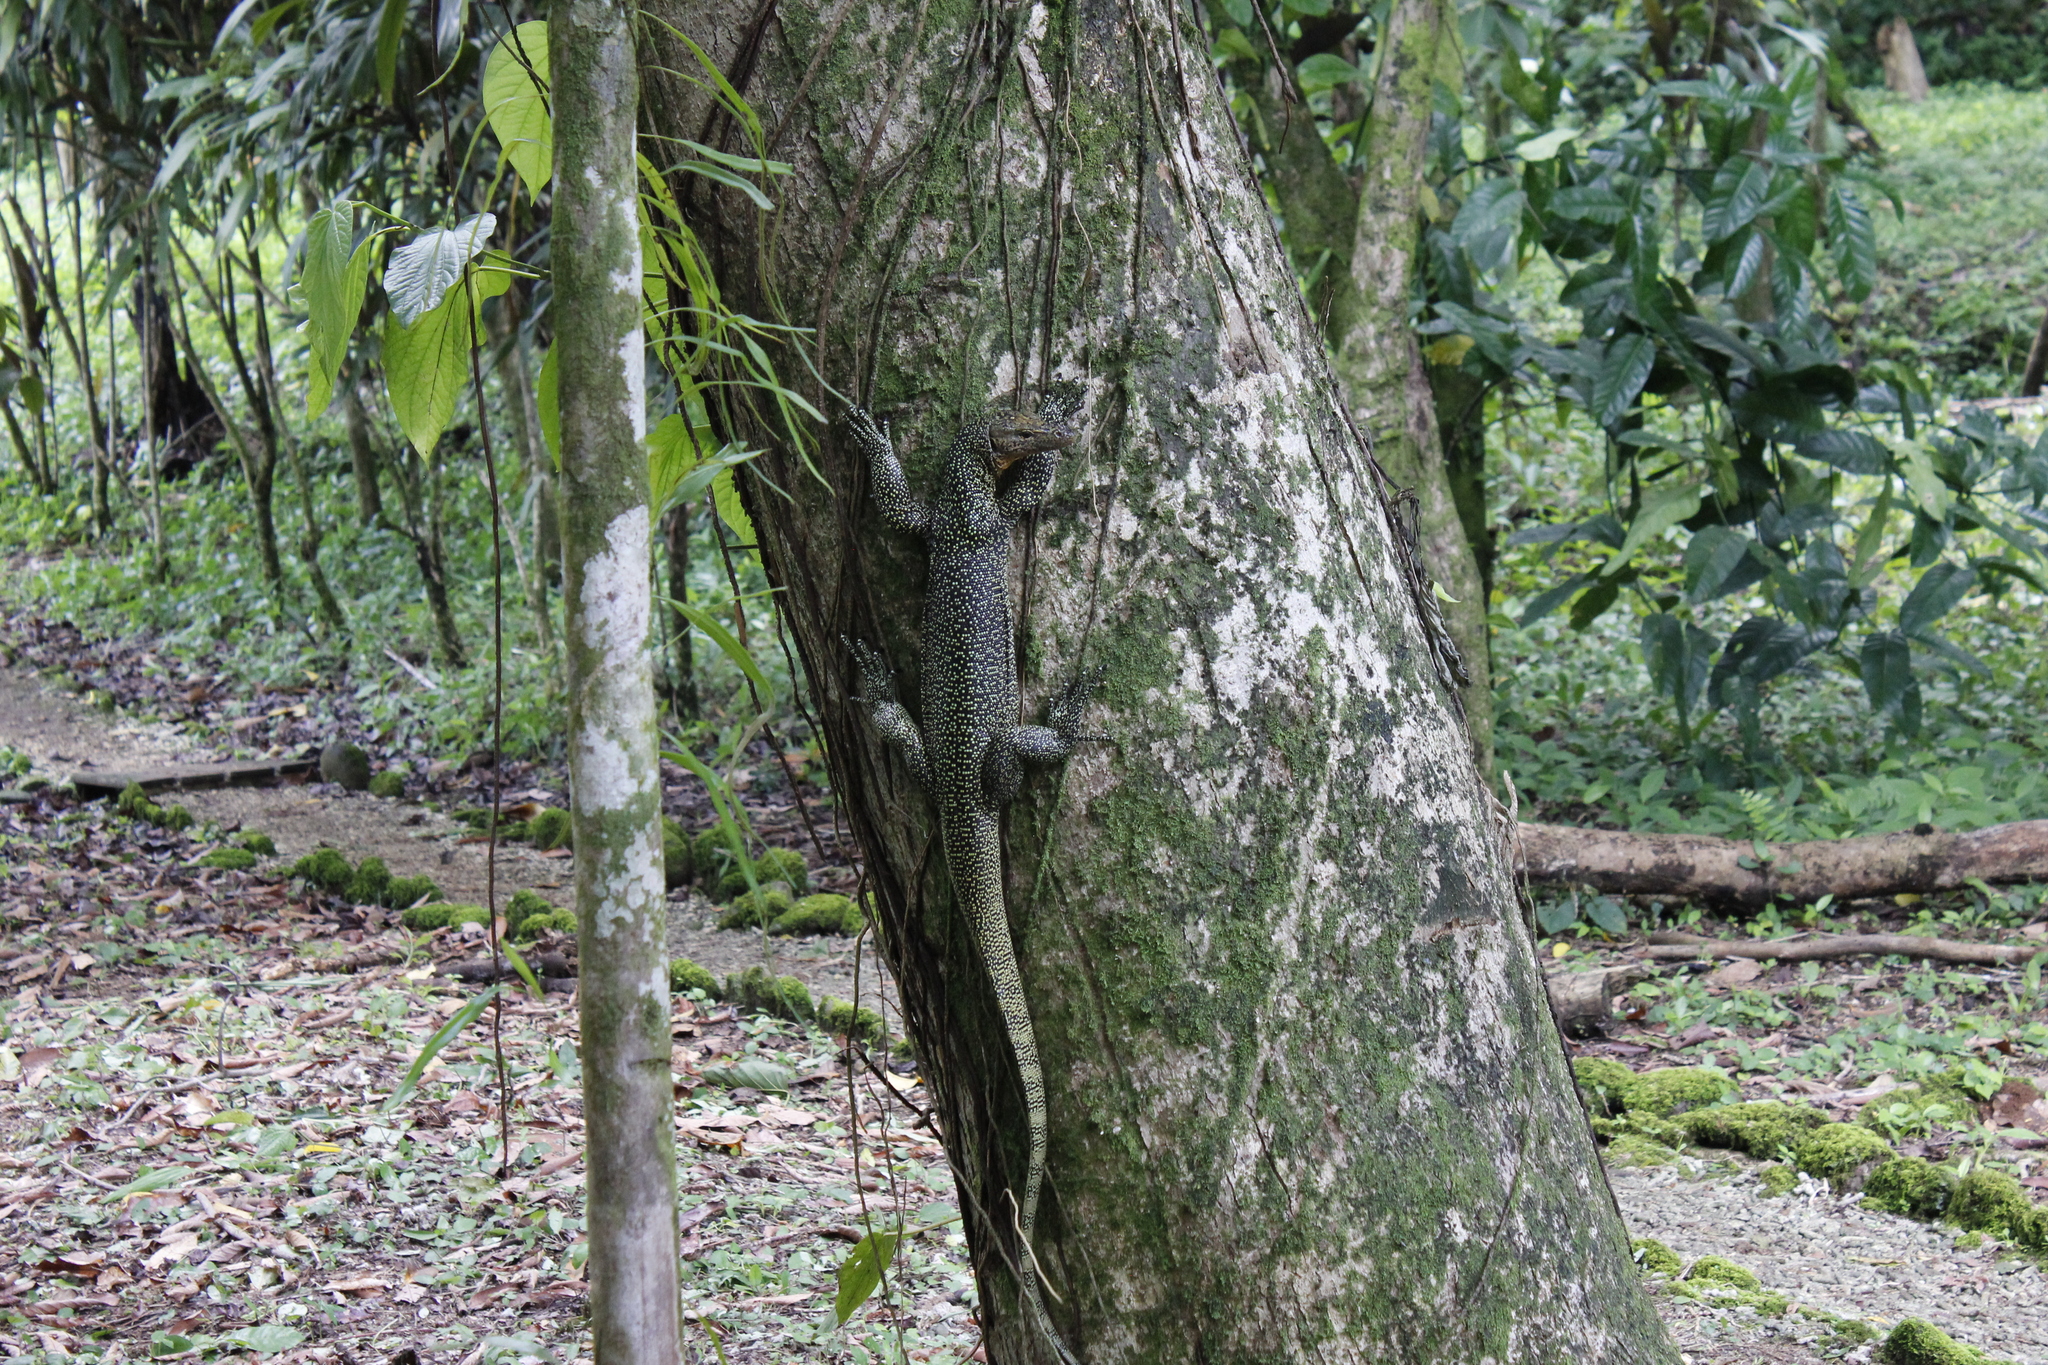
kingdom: Animalia
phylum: Chordata
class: Squamata
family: Varanidae
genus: Varanus
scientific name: Varanus indicus
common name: Mangrove monitor
